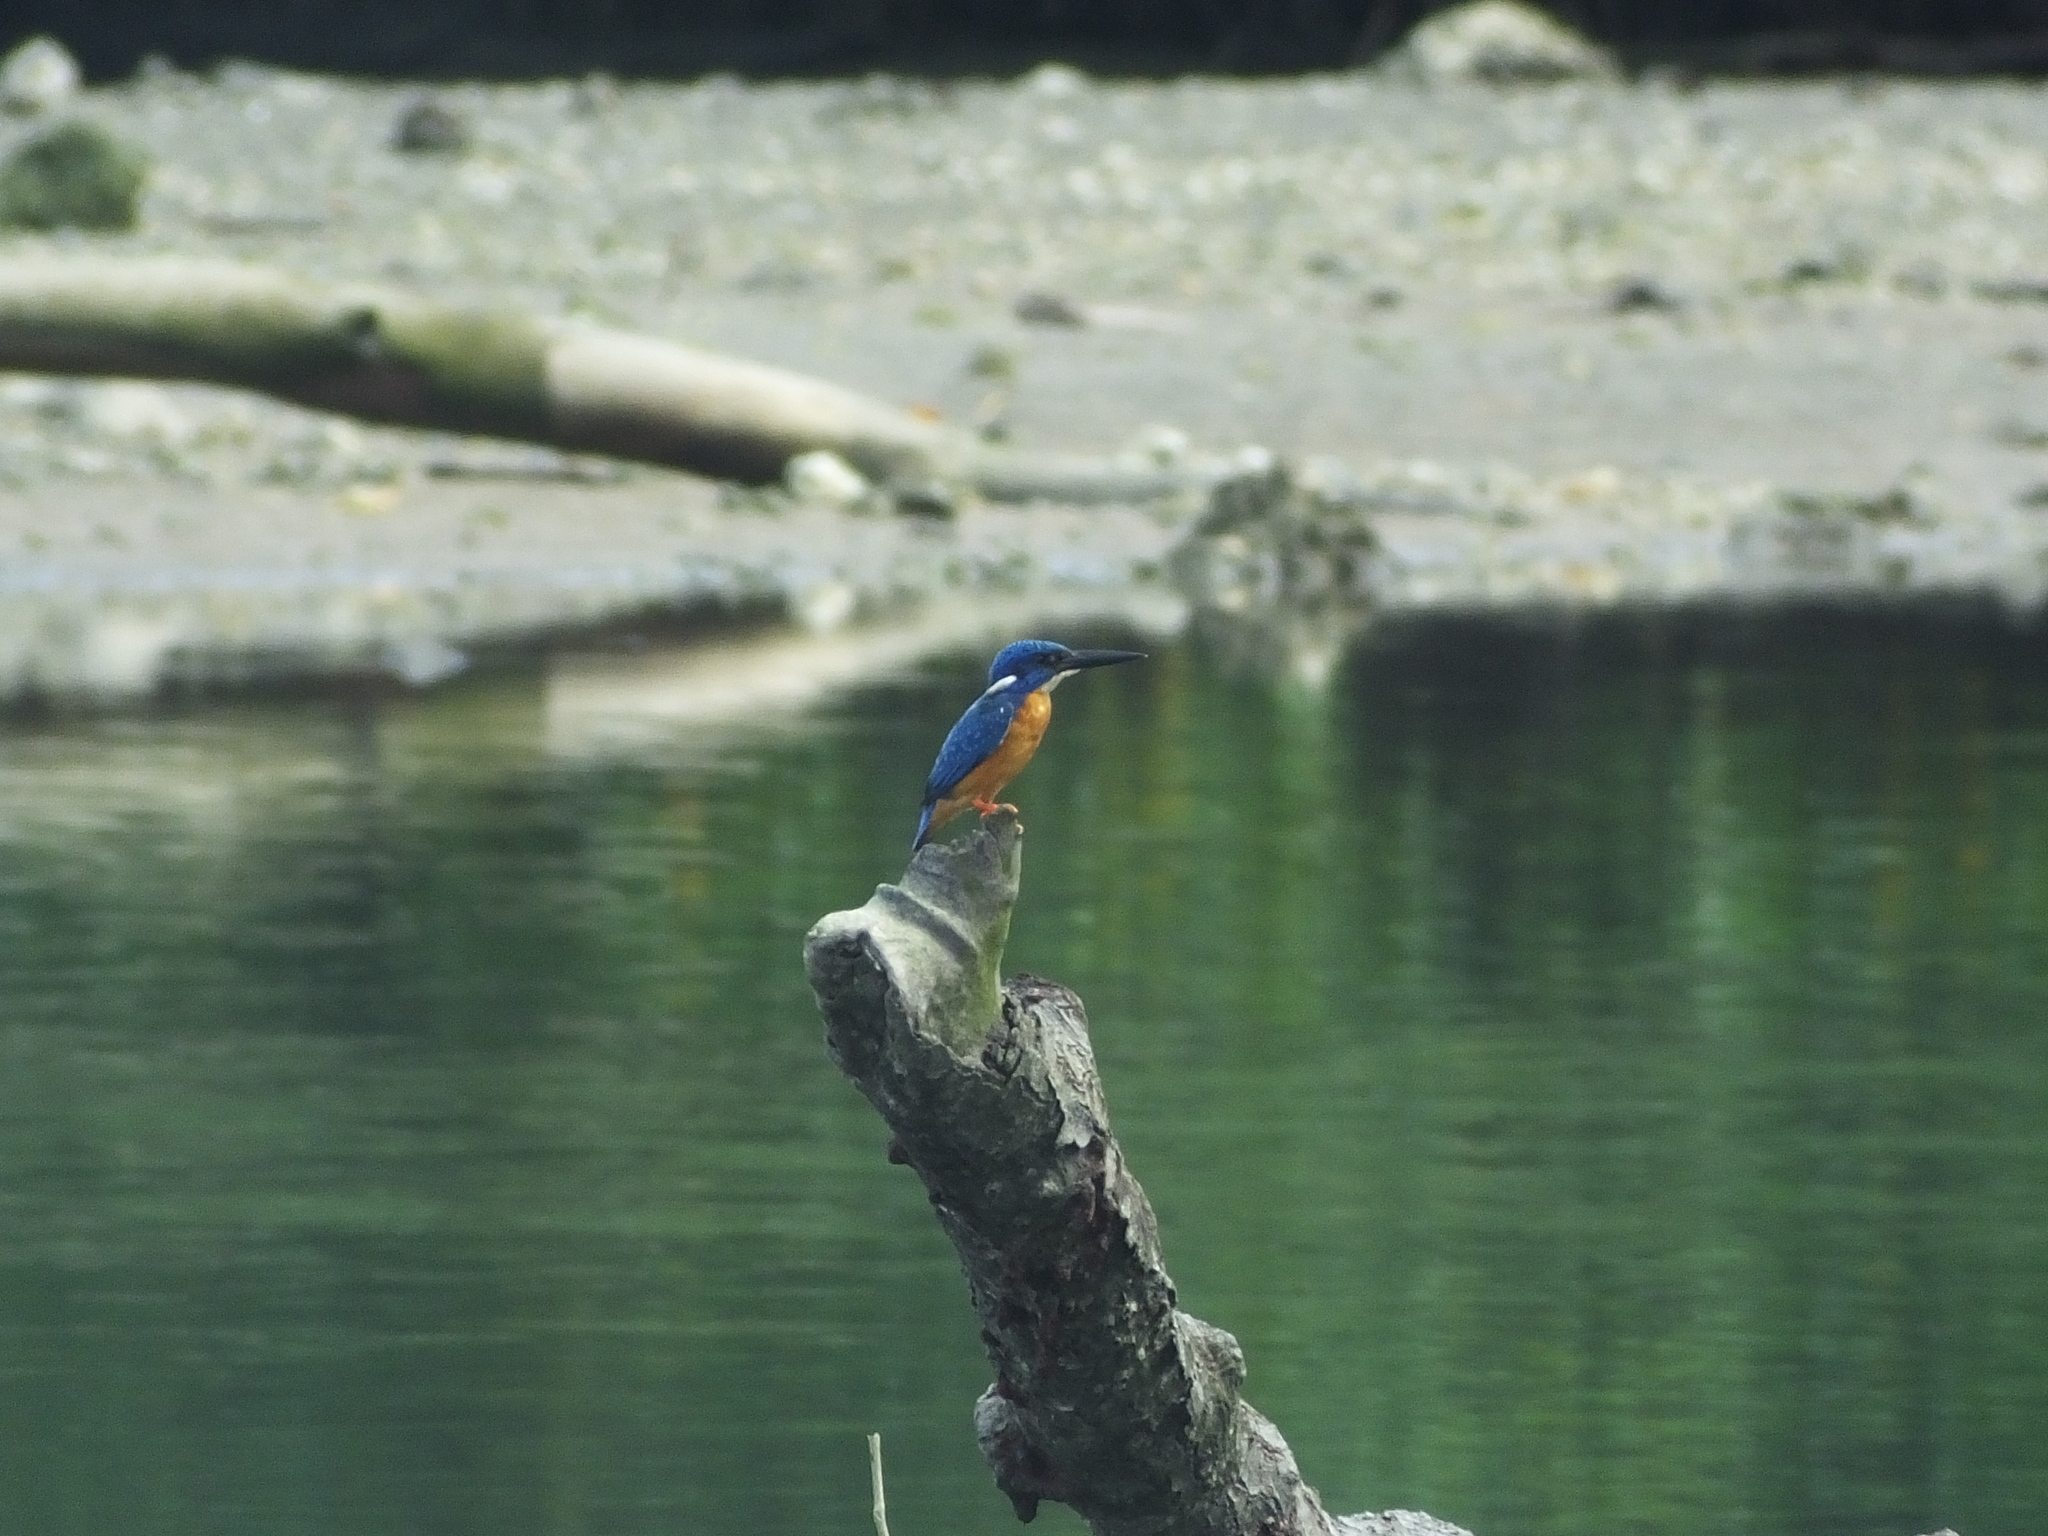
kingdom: Animalia
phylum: Chordata
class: Aves
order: Coraciiformes
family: Alcedinidae
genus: Alcedo
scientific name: Alcedo atthis
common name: Common kingfisher
